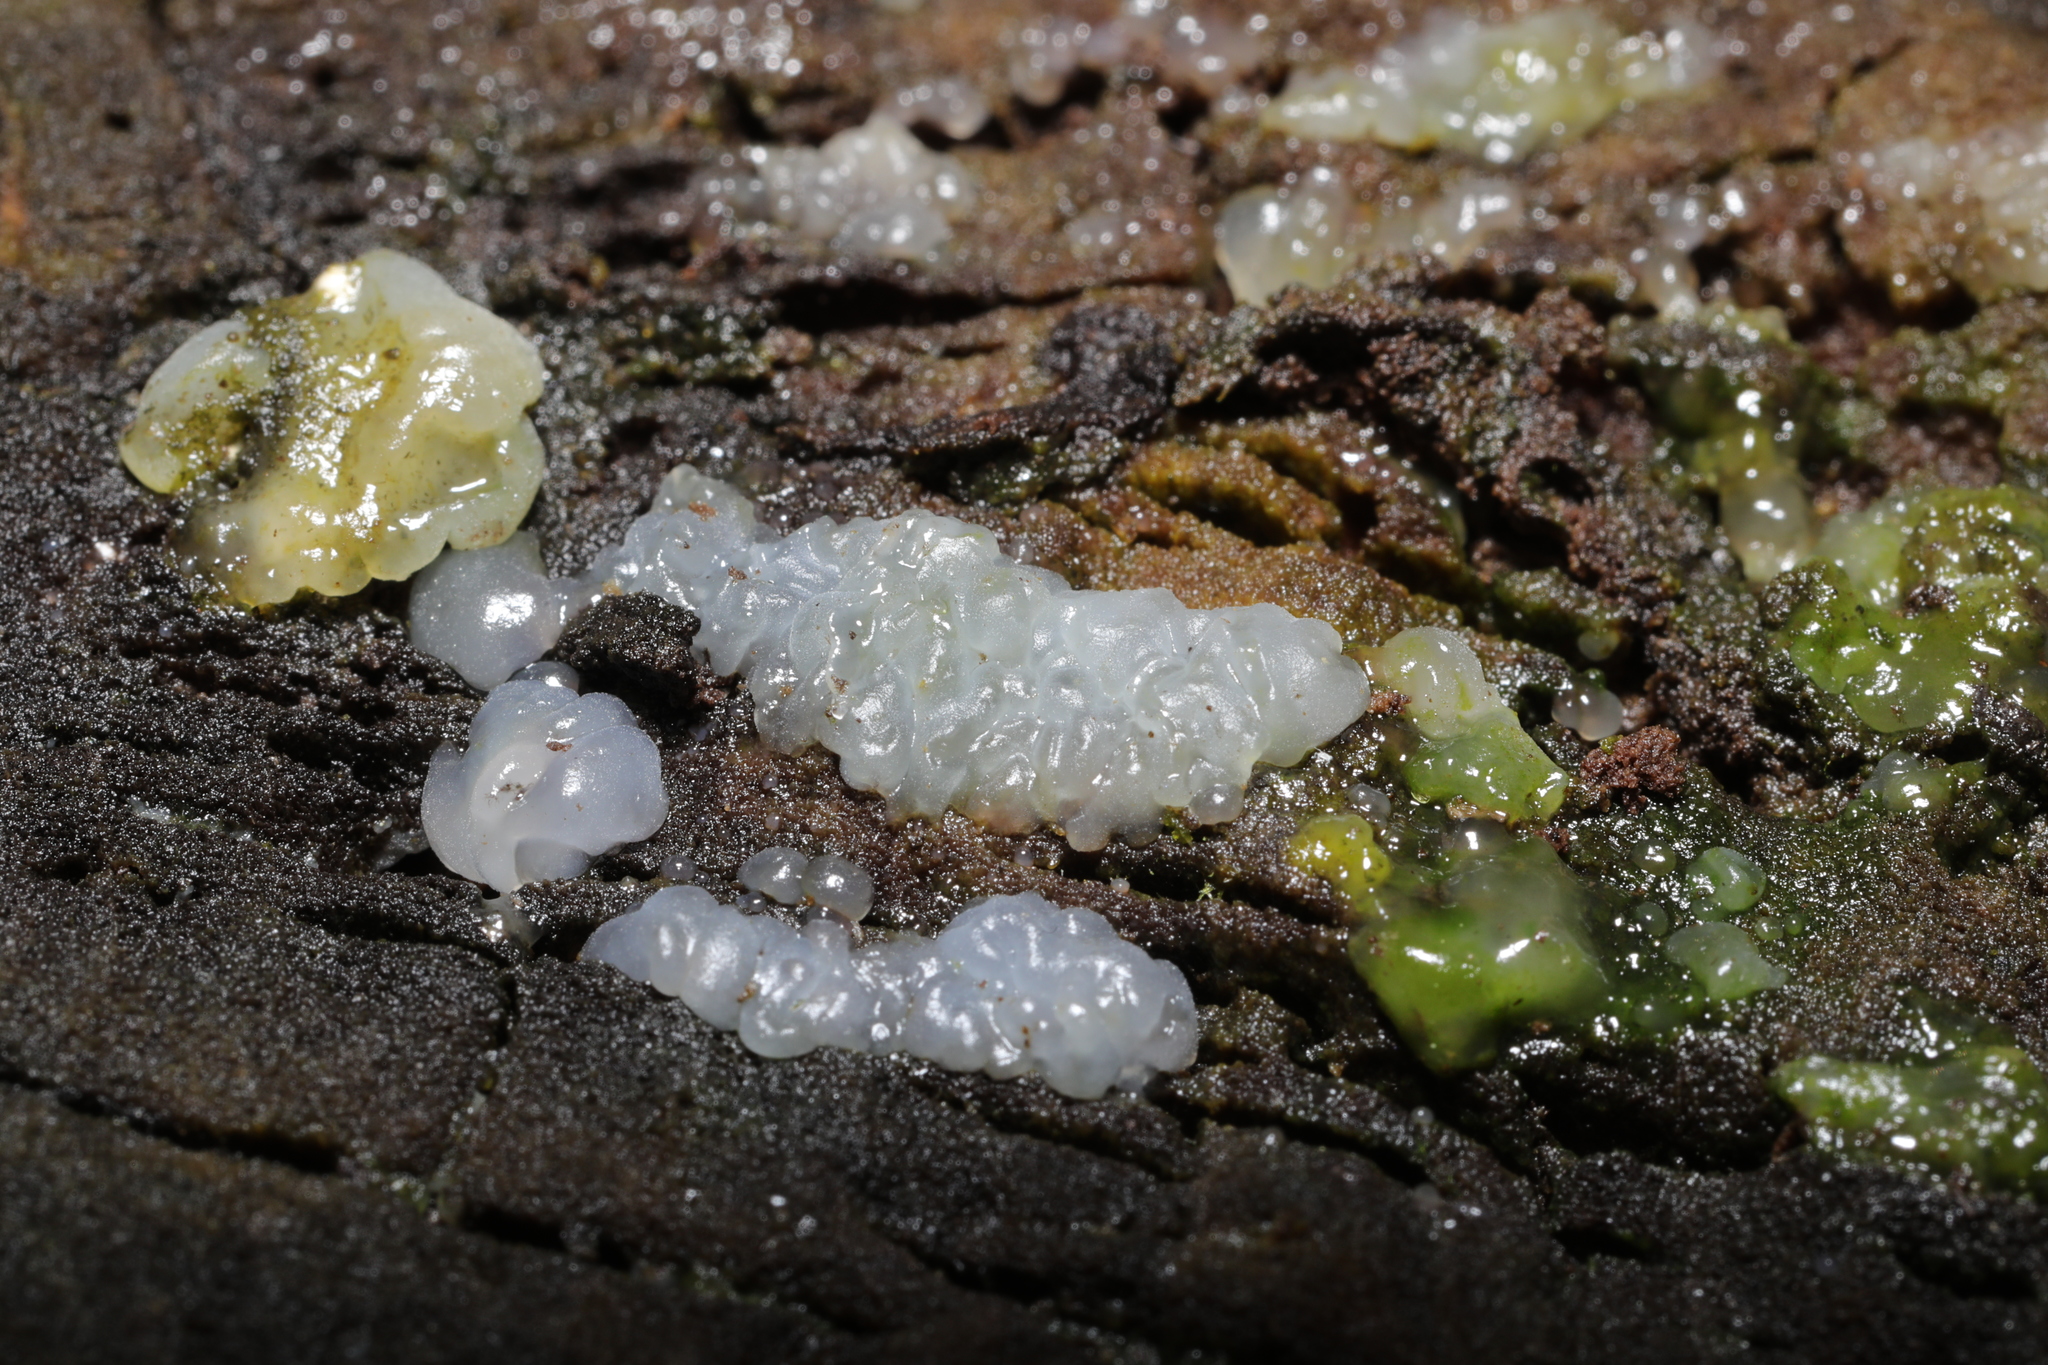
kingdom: Fungi
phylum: Basidiomycota
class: Agaricomycetes
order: Auriculariales
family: Hyaloriaceae
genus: Myxarium
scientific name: Myxarium nucleatum
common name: Crystal brain fungus
